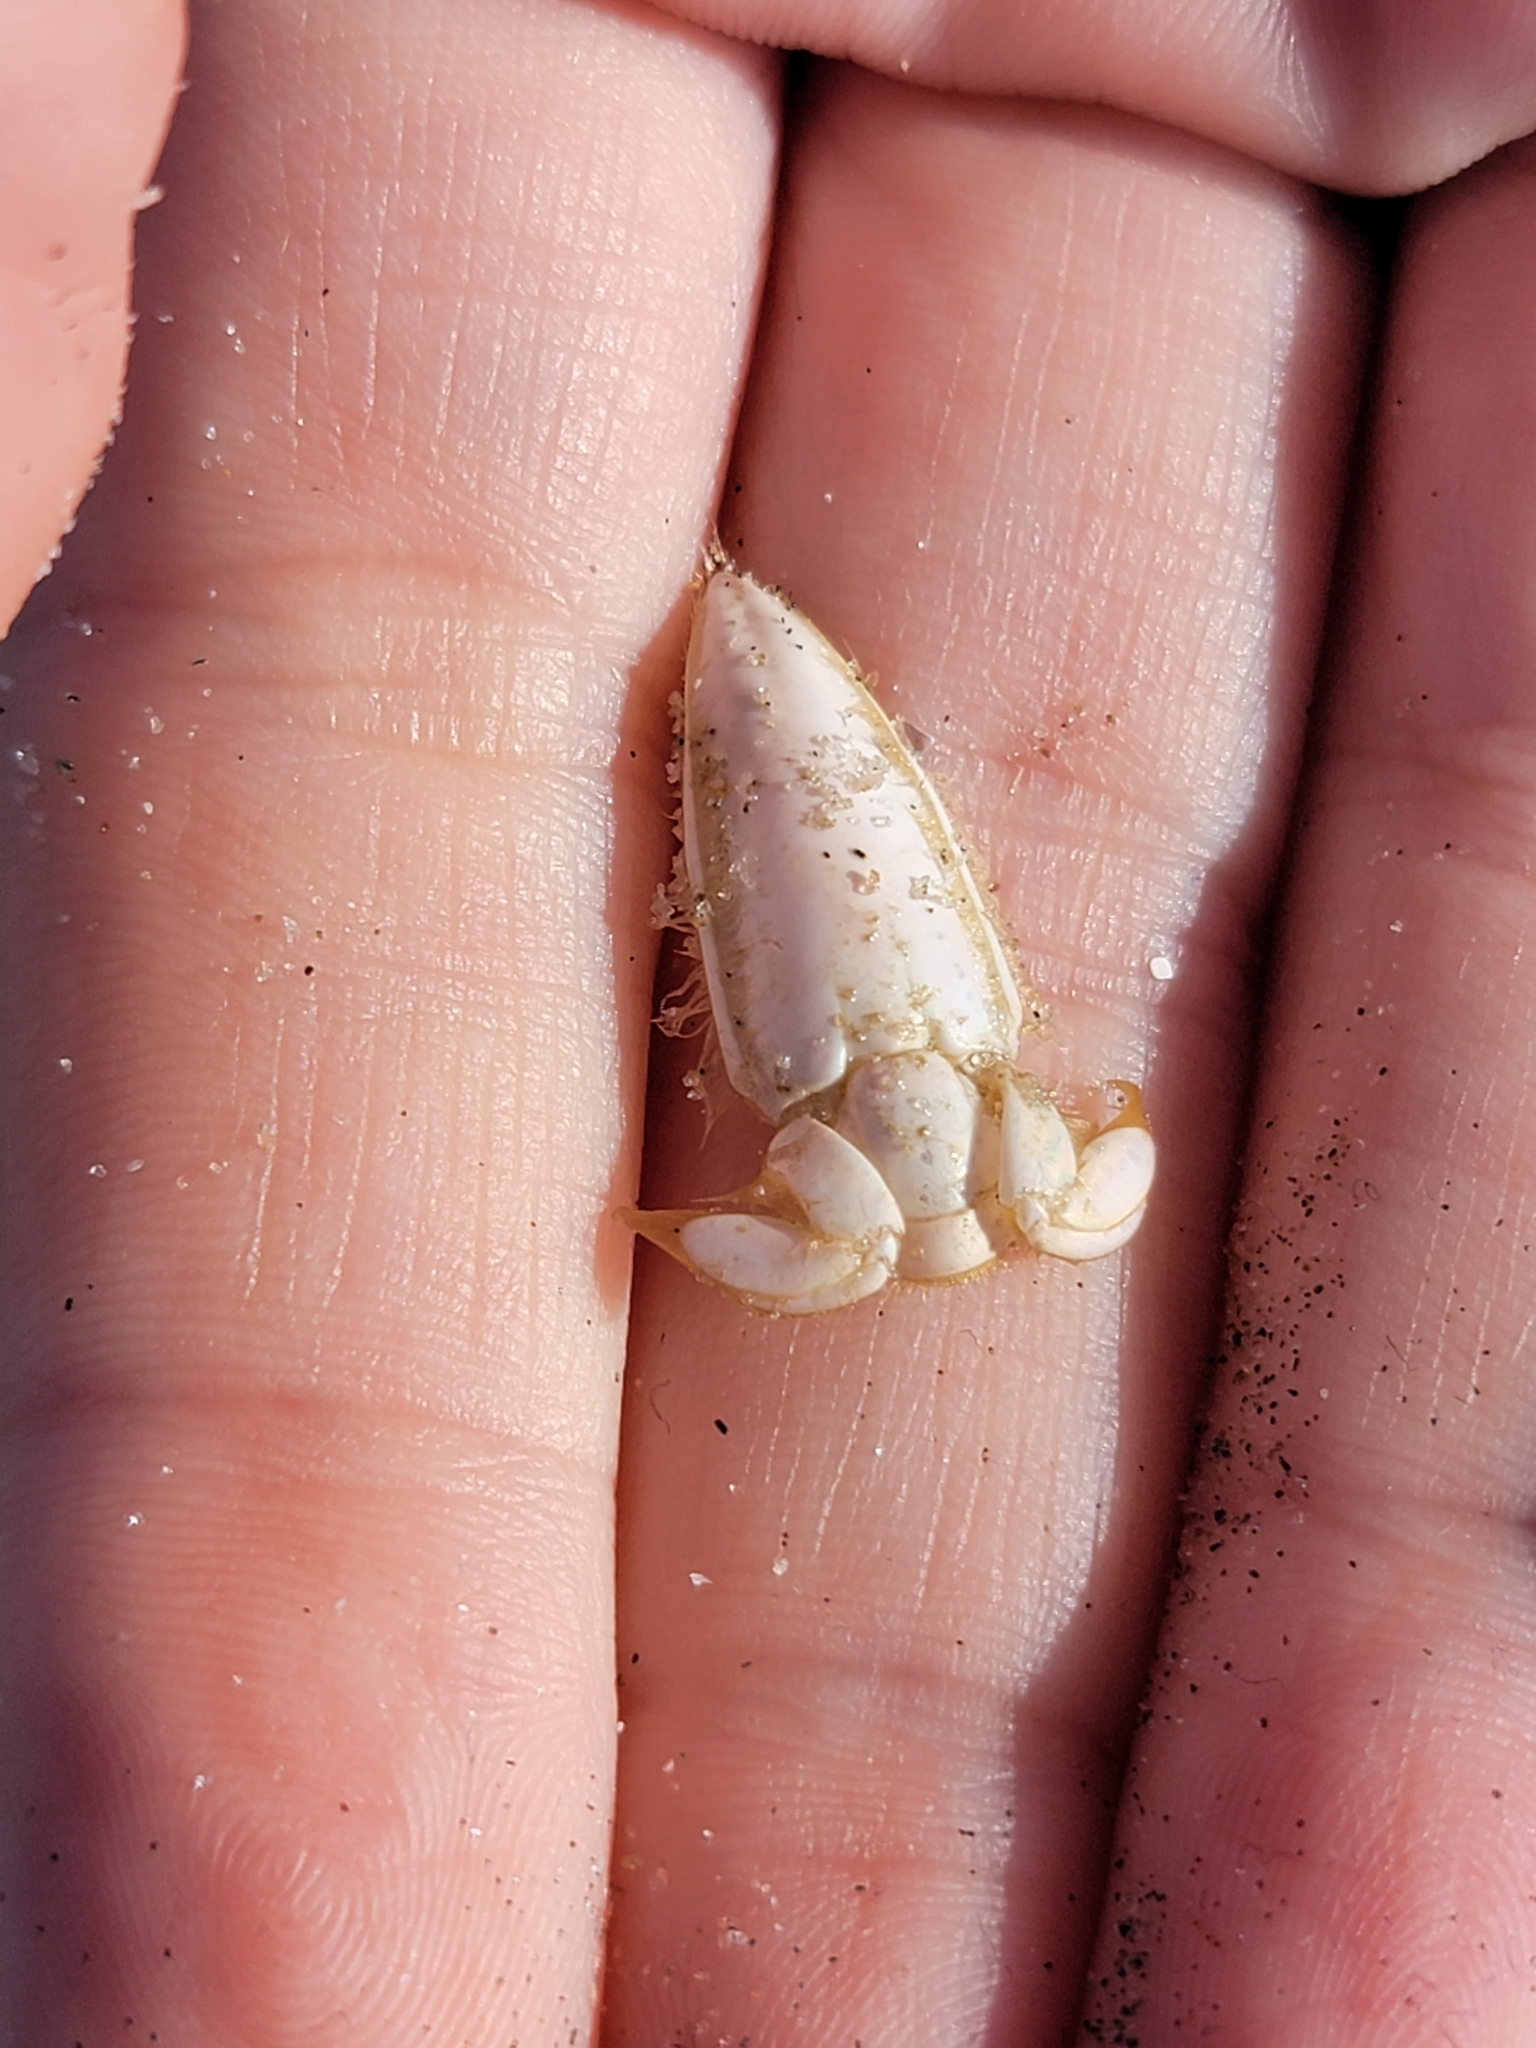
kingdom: Animalia
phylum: Arthropoda
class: Malacostraca
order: Decapoda
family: Hippidae
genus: Emerita
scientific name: Emerita talpoida
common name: Atlantic sand crab
